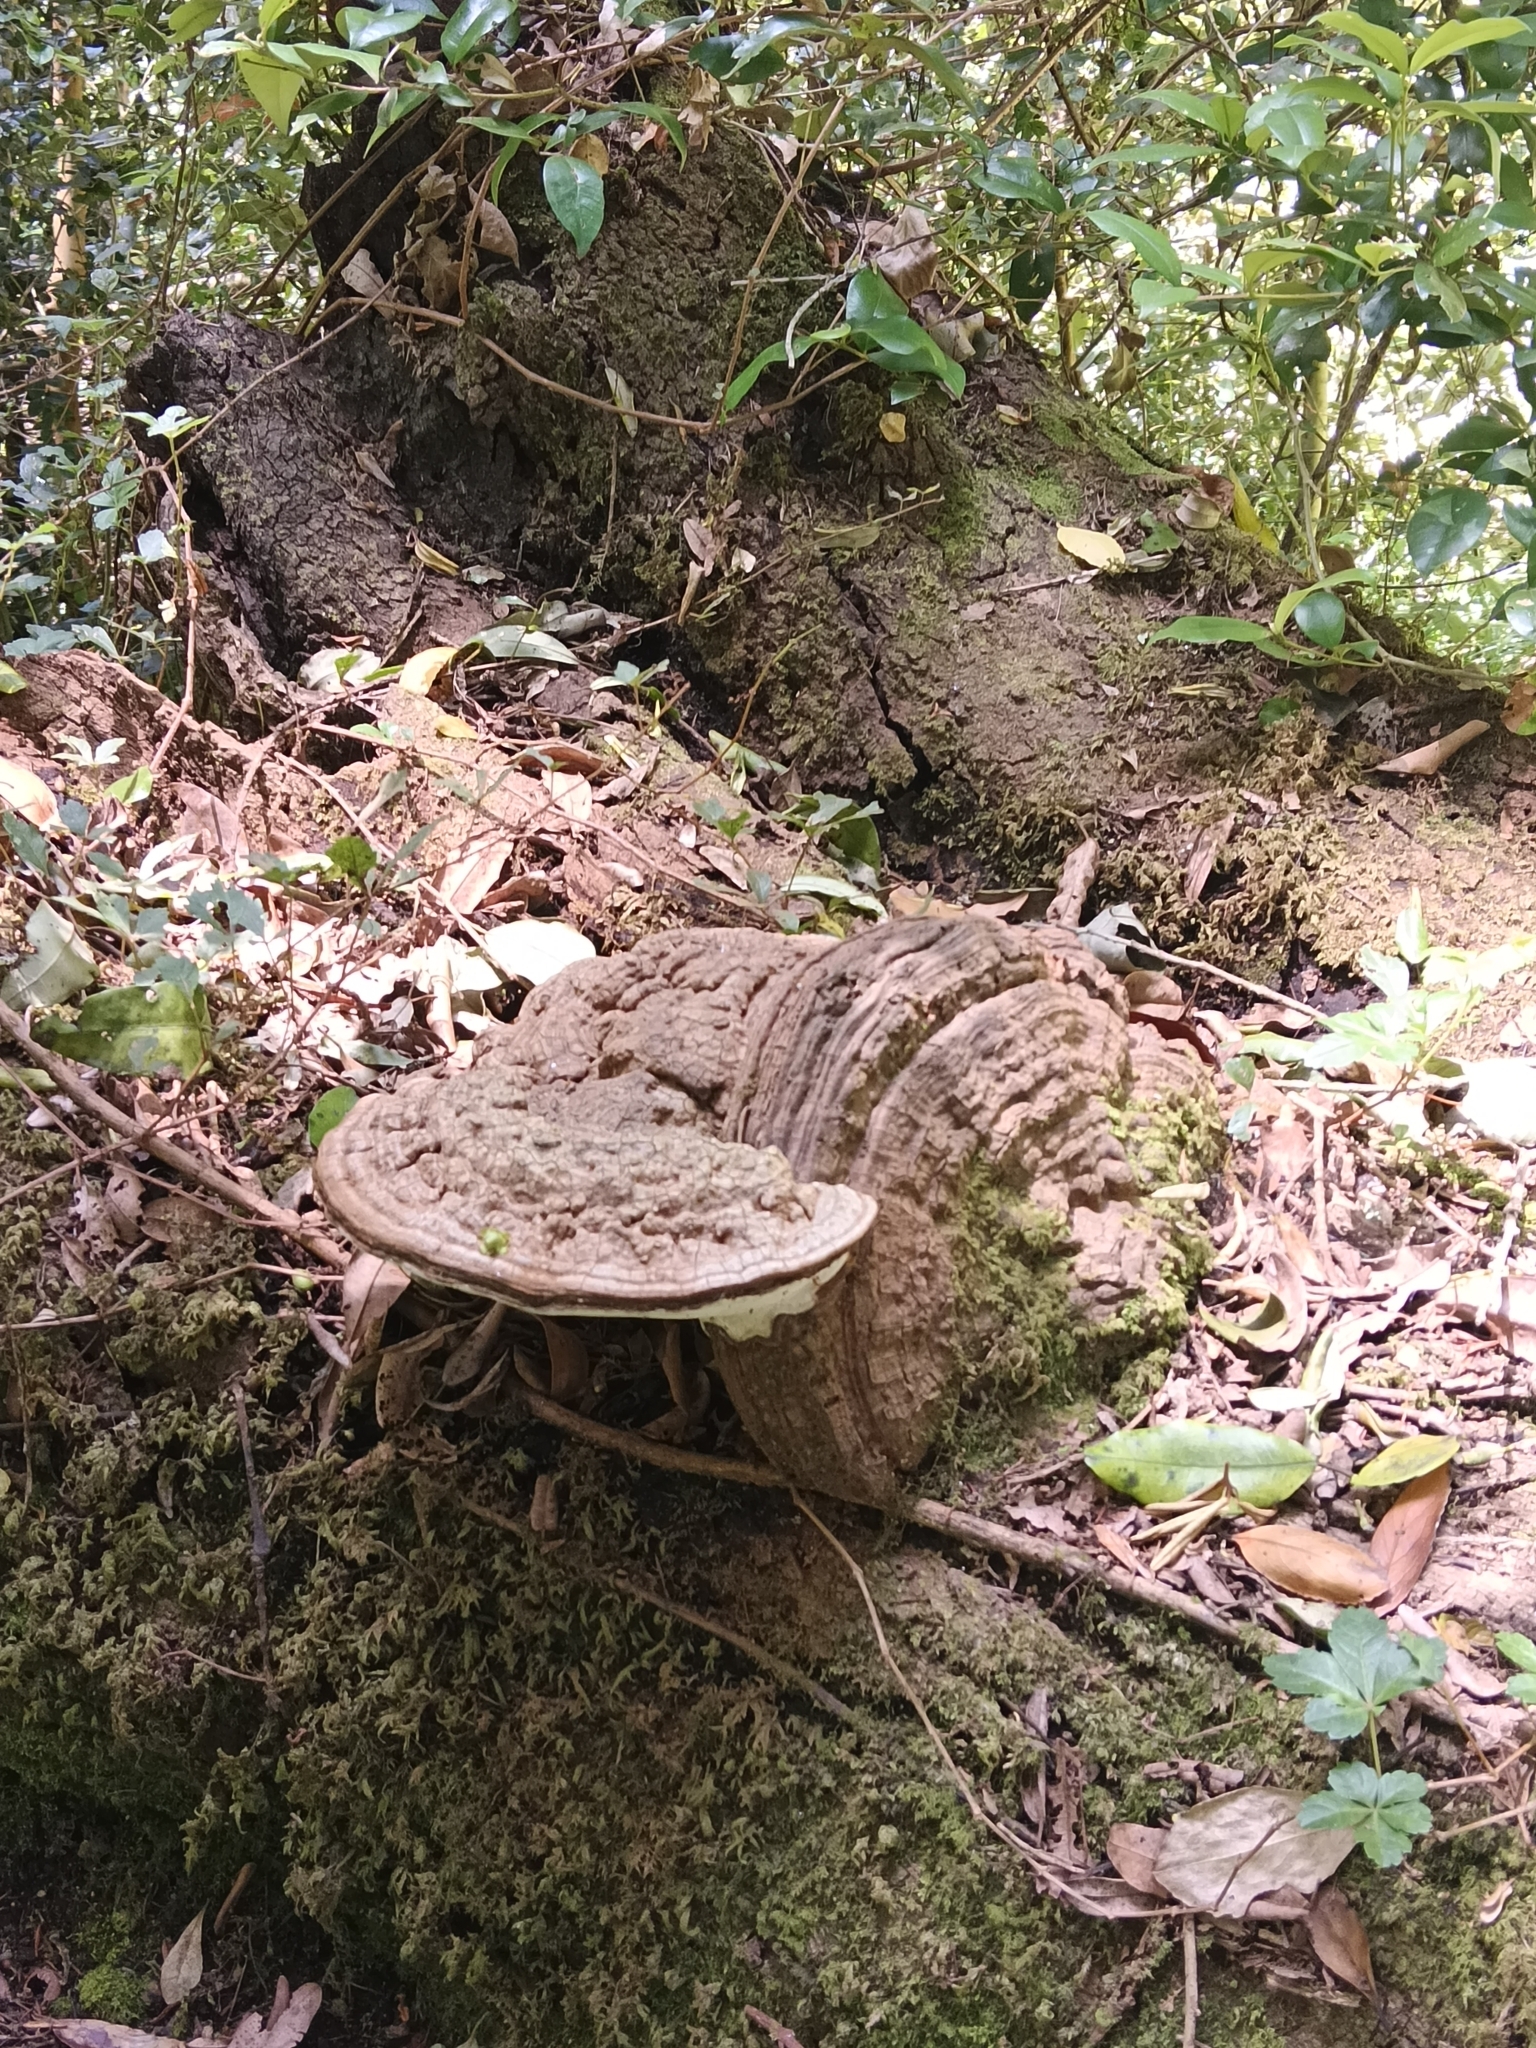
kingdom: Fungi
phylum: Basidiomycota
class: Agaricomycetes
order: Polyporales
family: Polyporaceae
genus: Ganoderma
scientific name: Ganoderma australe
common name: Southern bracket
